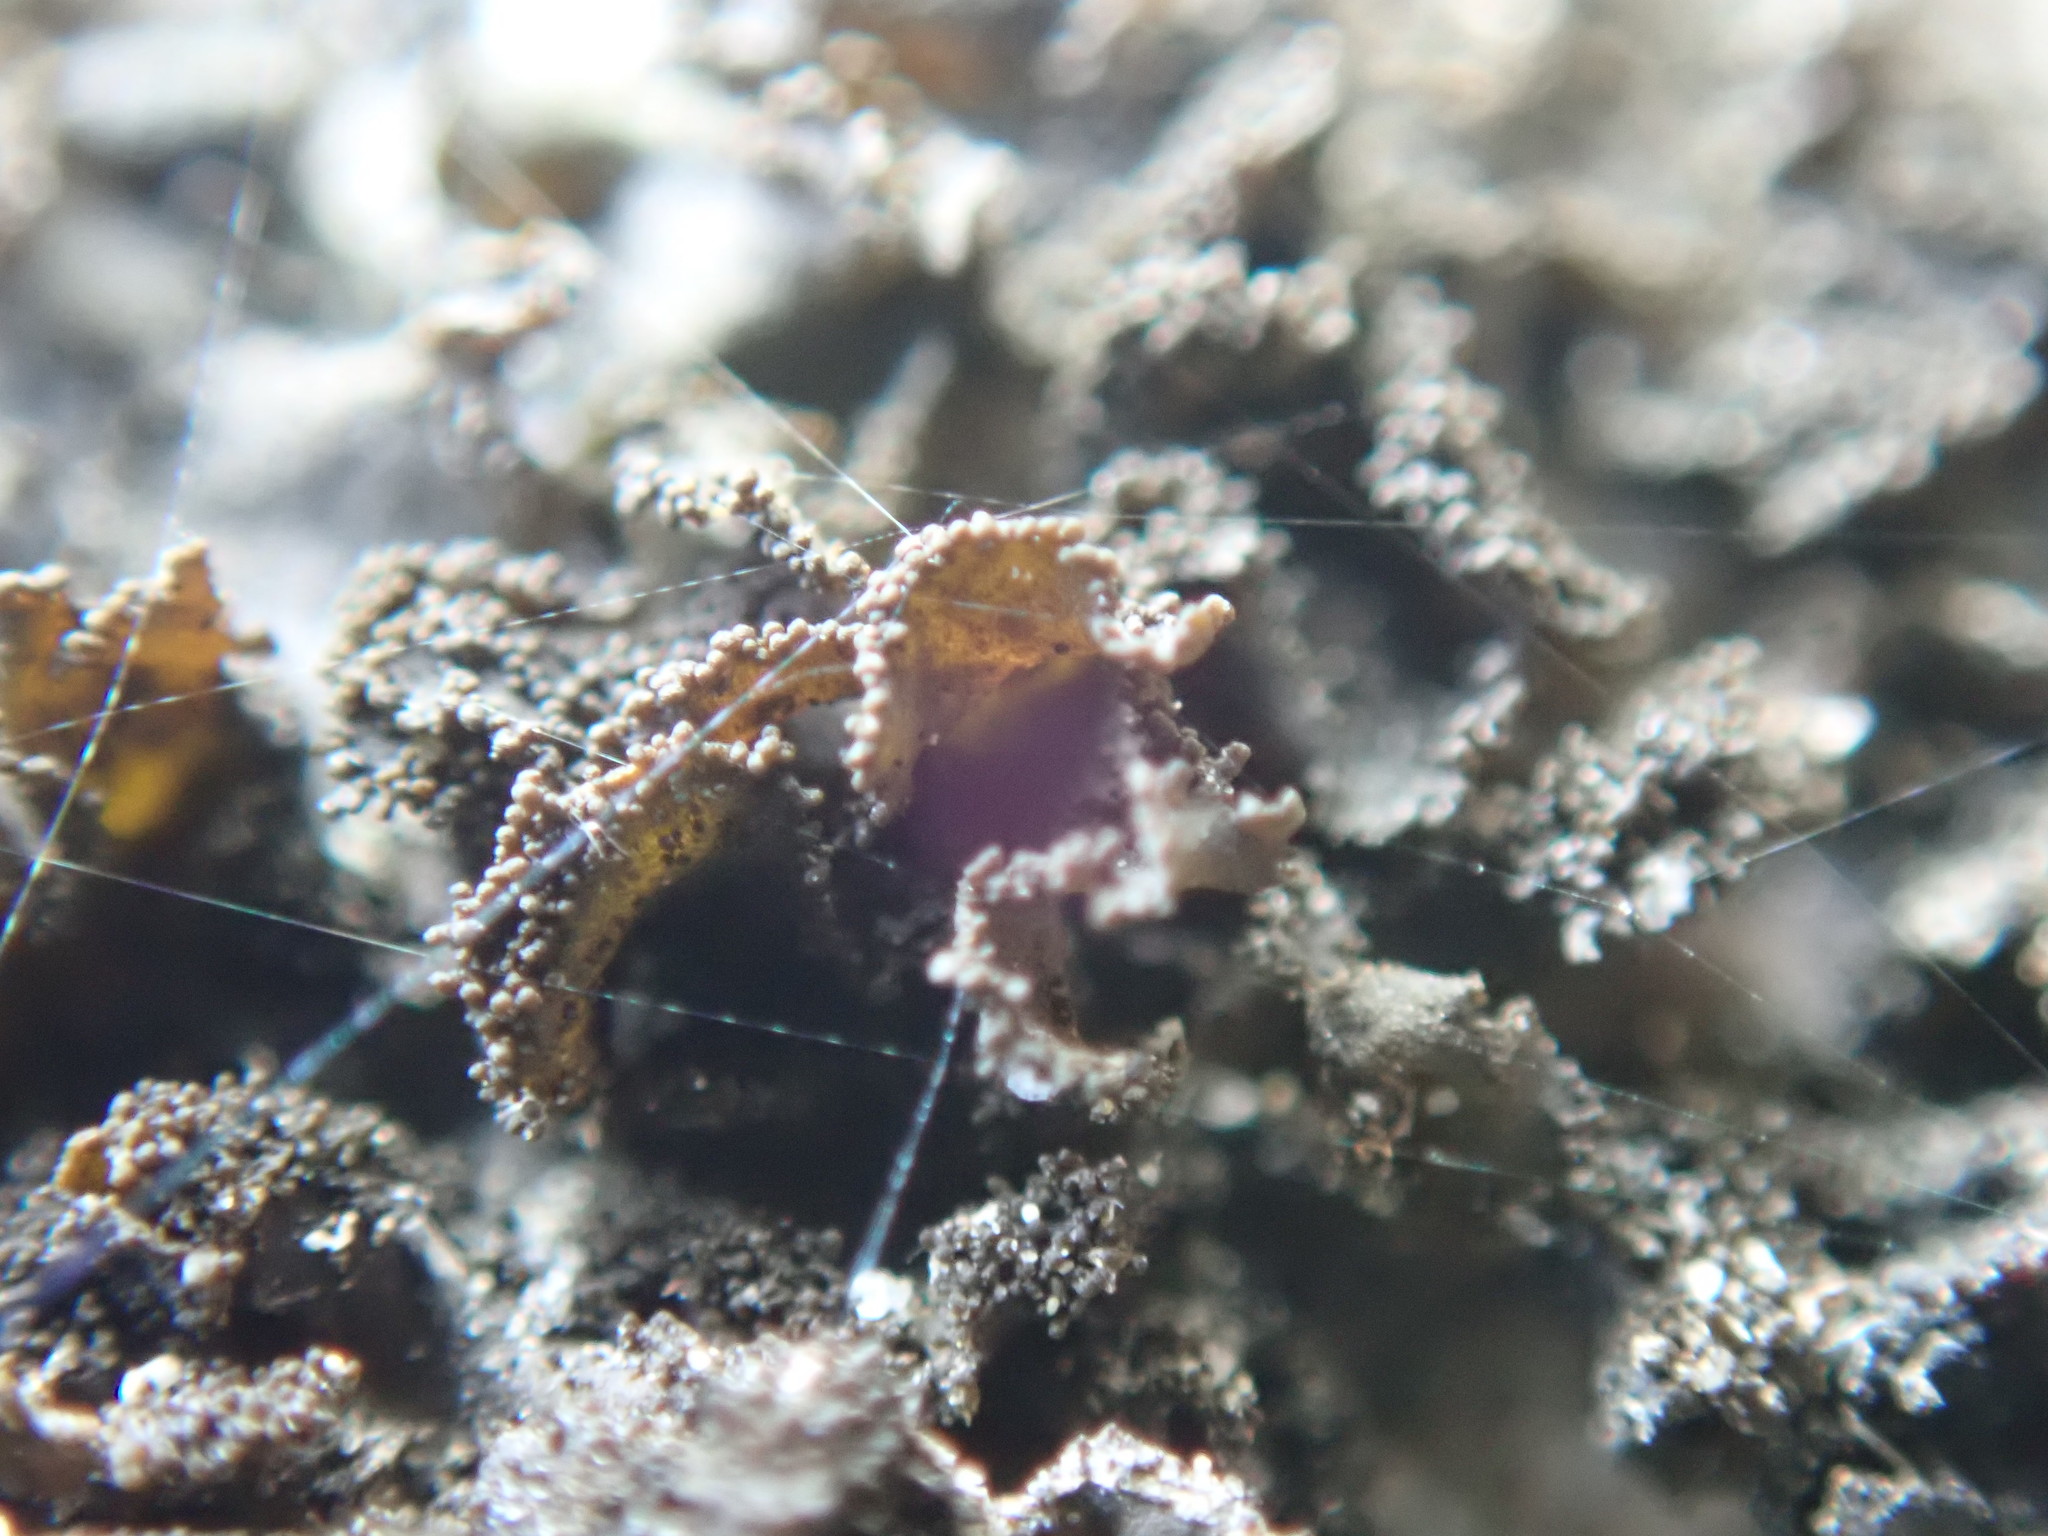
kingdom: Fungi
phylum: Ascomycota
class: Lecanoromycetes
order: Peltigerales
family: Collemataceae
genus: Lathagrium
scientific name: Lathagrium fuscovirens
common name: Crumpled rock tarpaper lichen
